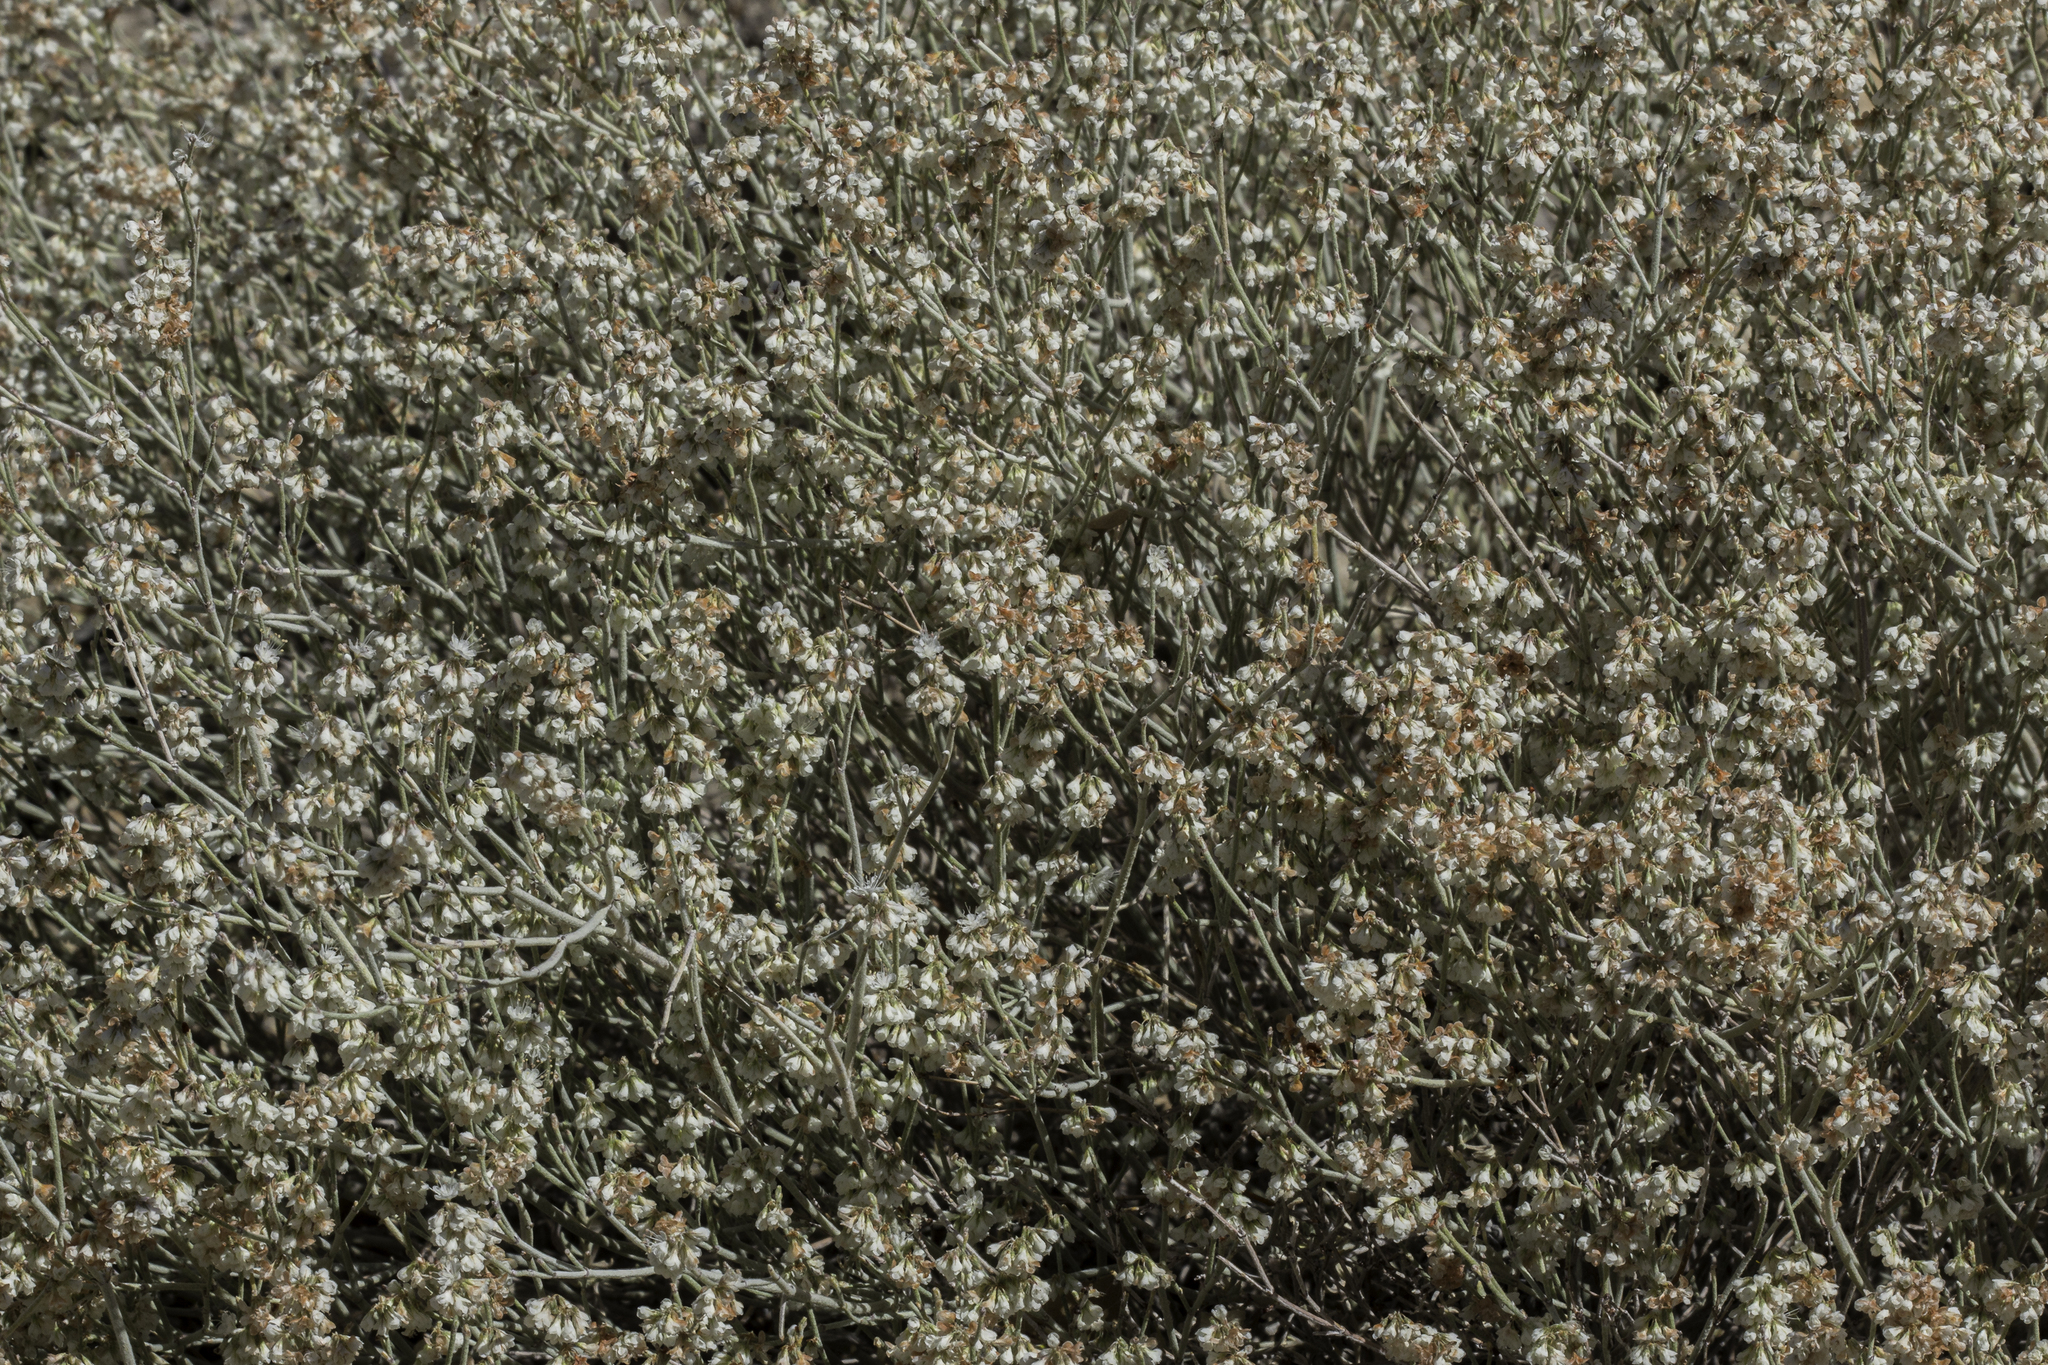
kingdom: Plantae
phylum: Tracheophyta
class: Magnoliopsida
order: Caryophyllales
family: Polygonaceae
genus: Eriogonum
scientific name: Eriogonum wrightii
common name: Bastard-sage
